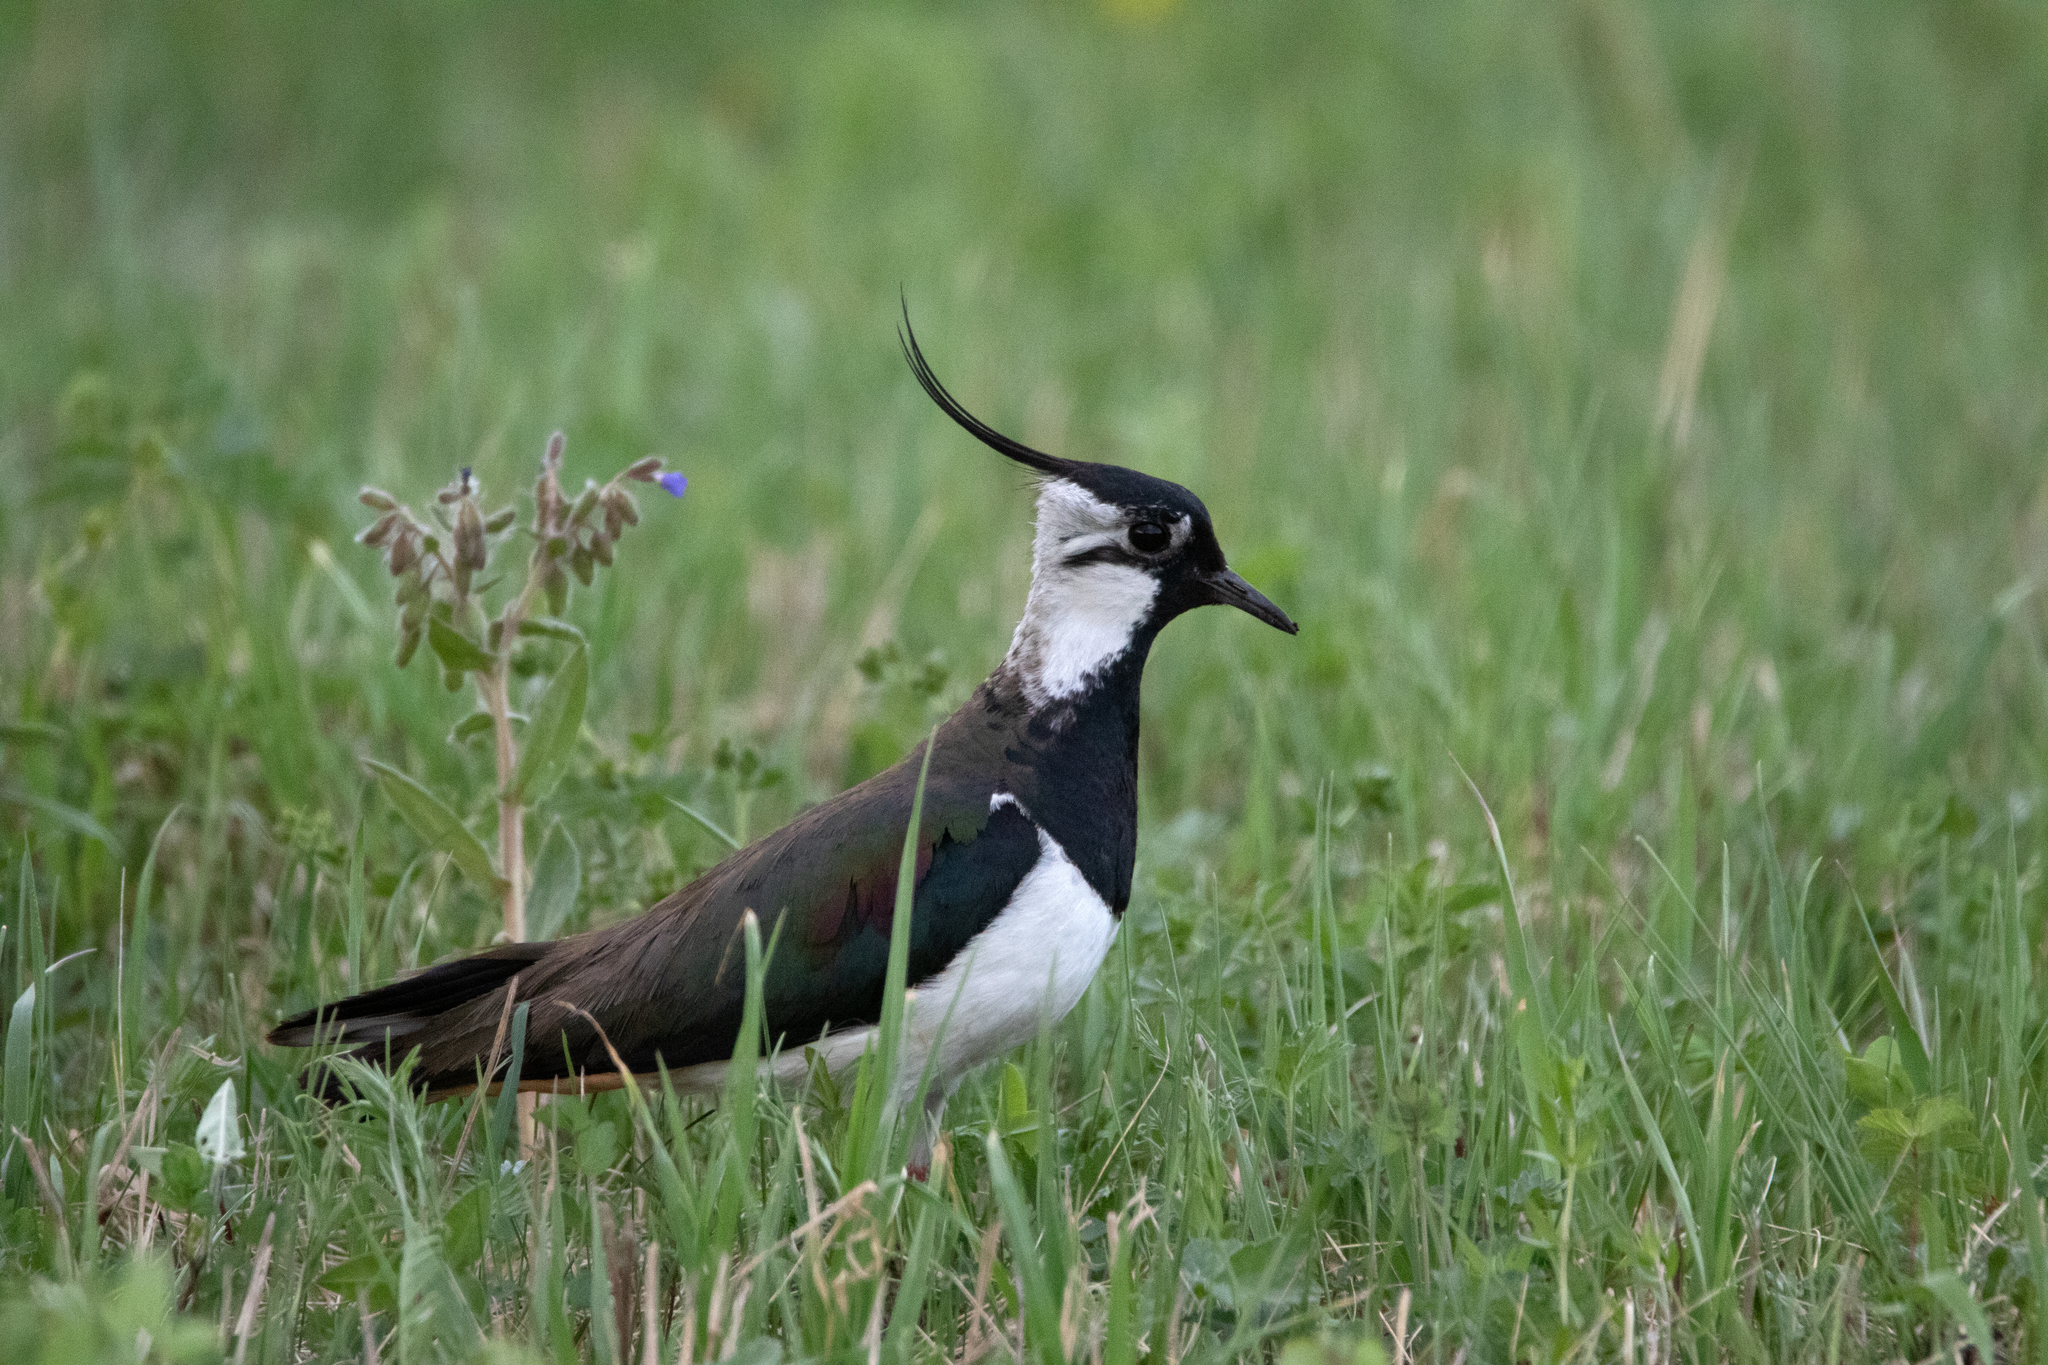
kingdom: Animalia
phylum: Chordata
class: Aves
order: Charadriiformes
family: Charadriidae
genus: Vanellus
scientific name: Vanellus vanellus
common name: Northern lapwing
